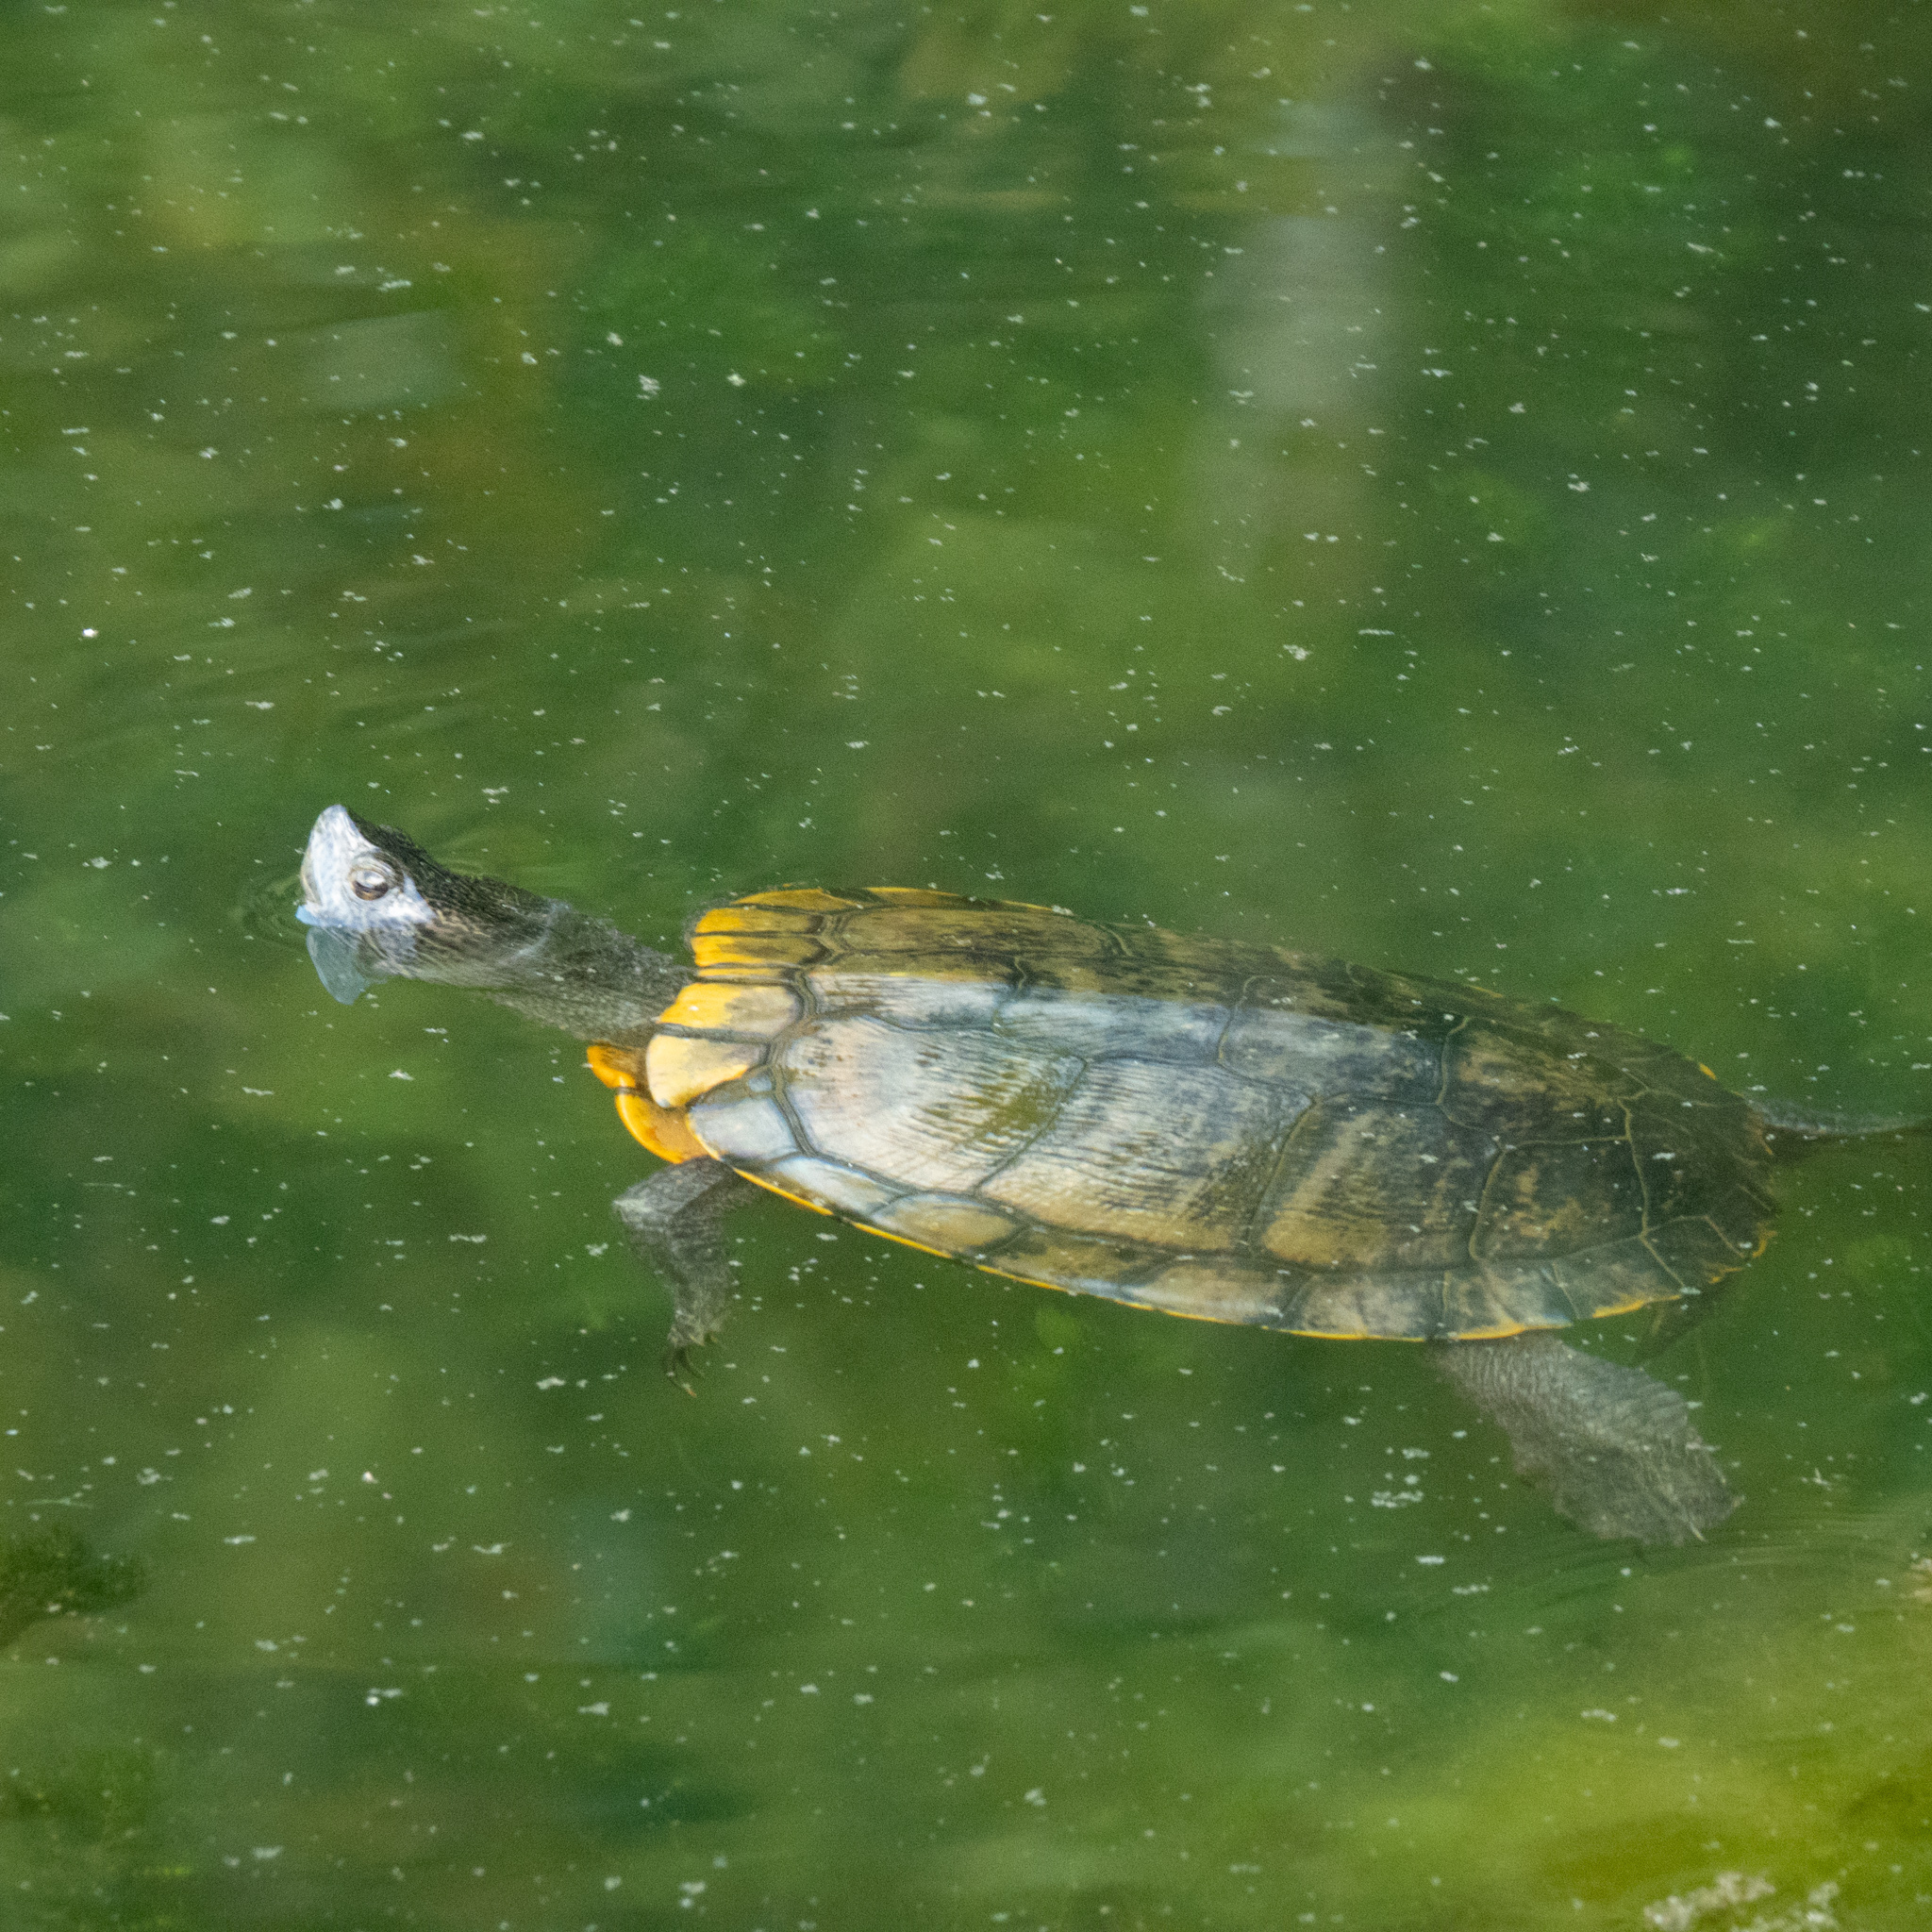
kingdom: Animalia
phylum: Chordata
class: Testudines
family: Emydidae
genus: Trachemys
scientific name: Trachemys scripta
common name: Slider
